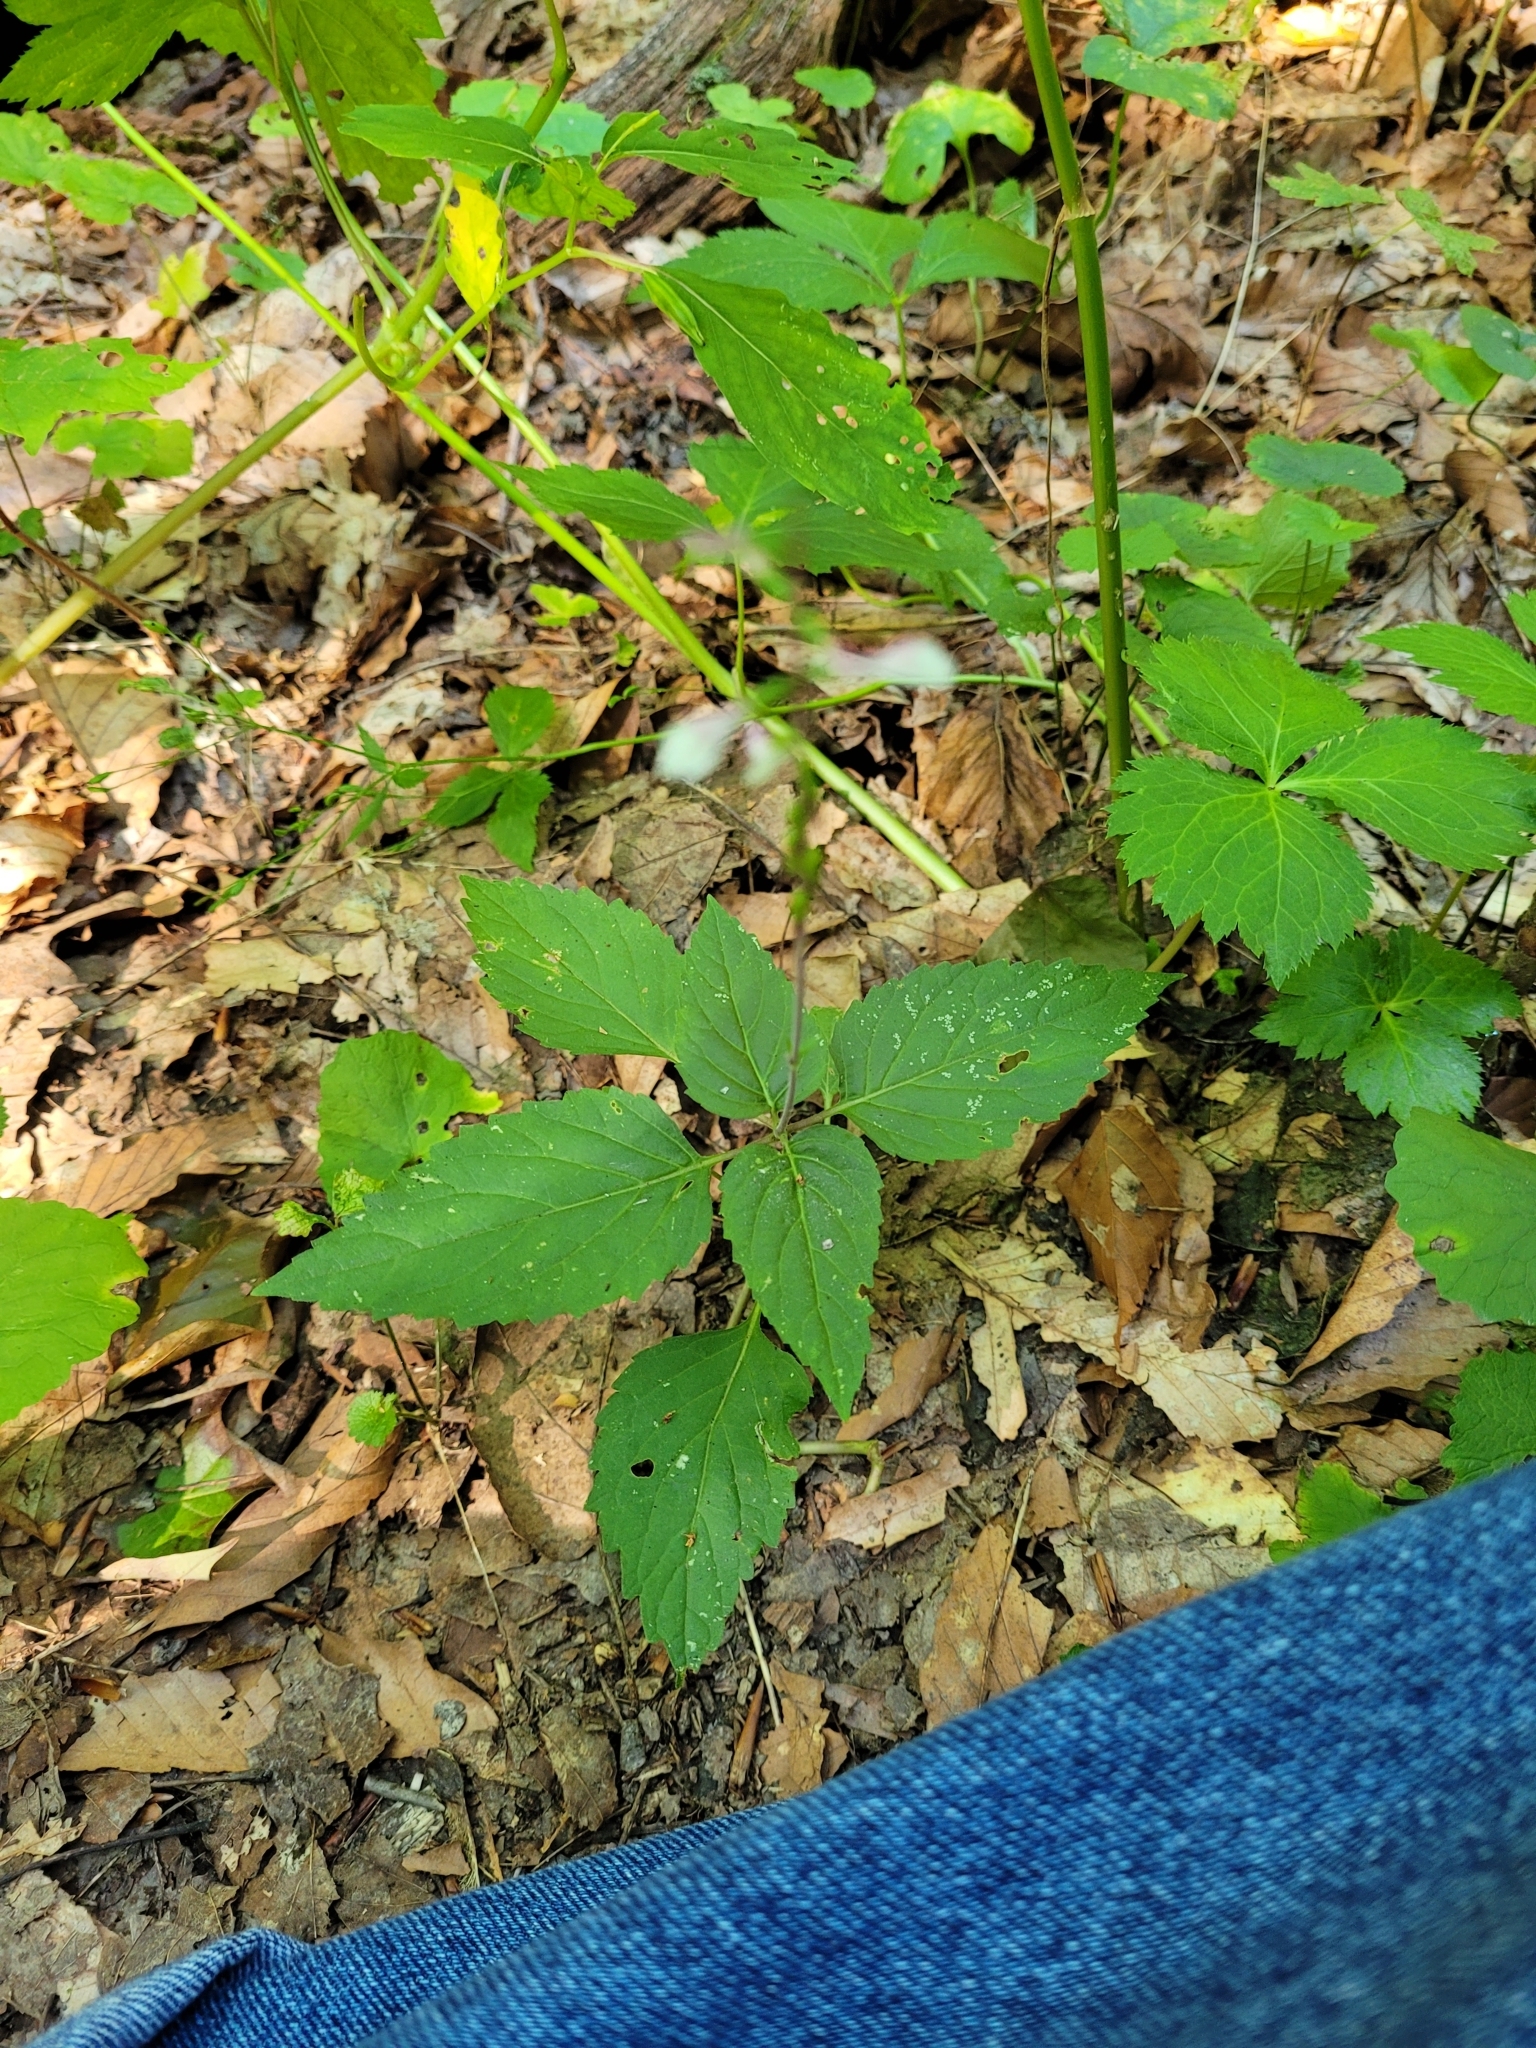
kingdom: Plantae
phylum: Tracheophyta
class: Magnoliopsida
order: Lamiales
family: Phrymaceae
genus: Phryma
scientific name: Phryma leptostachya
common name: American lopseed
